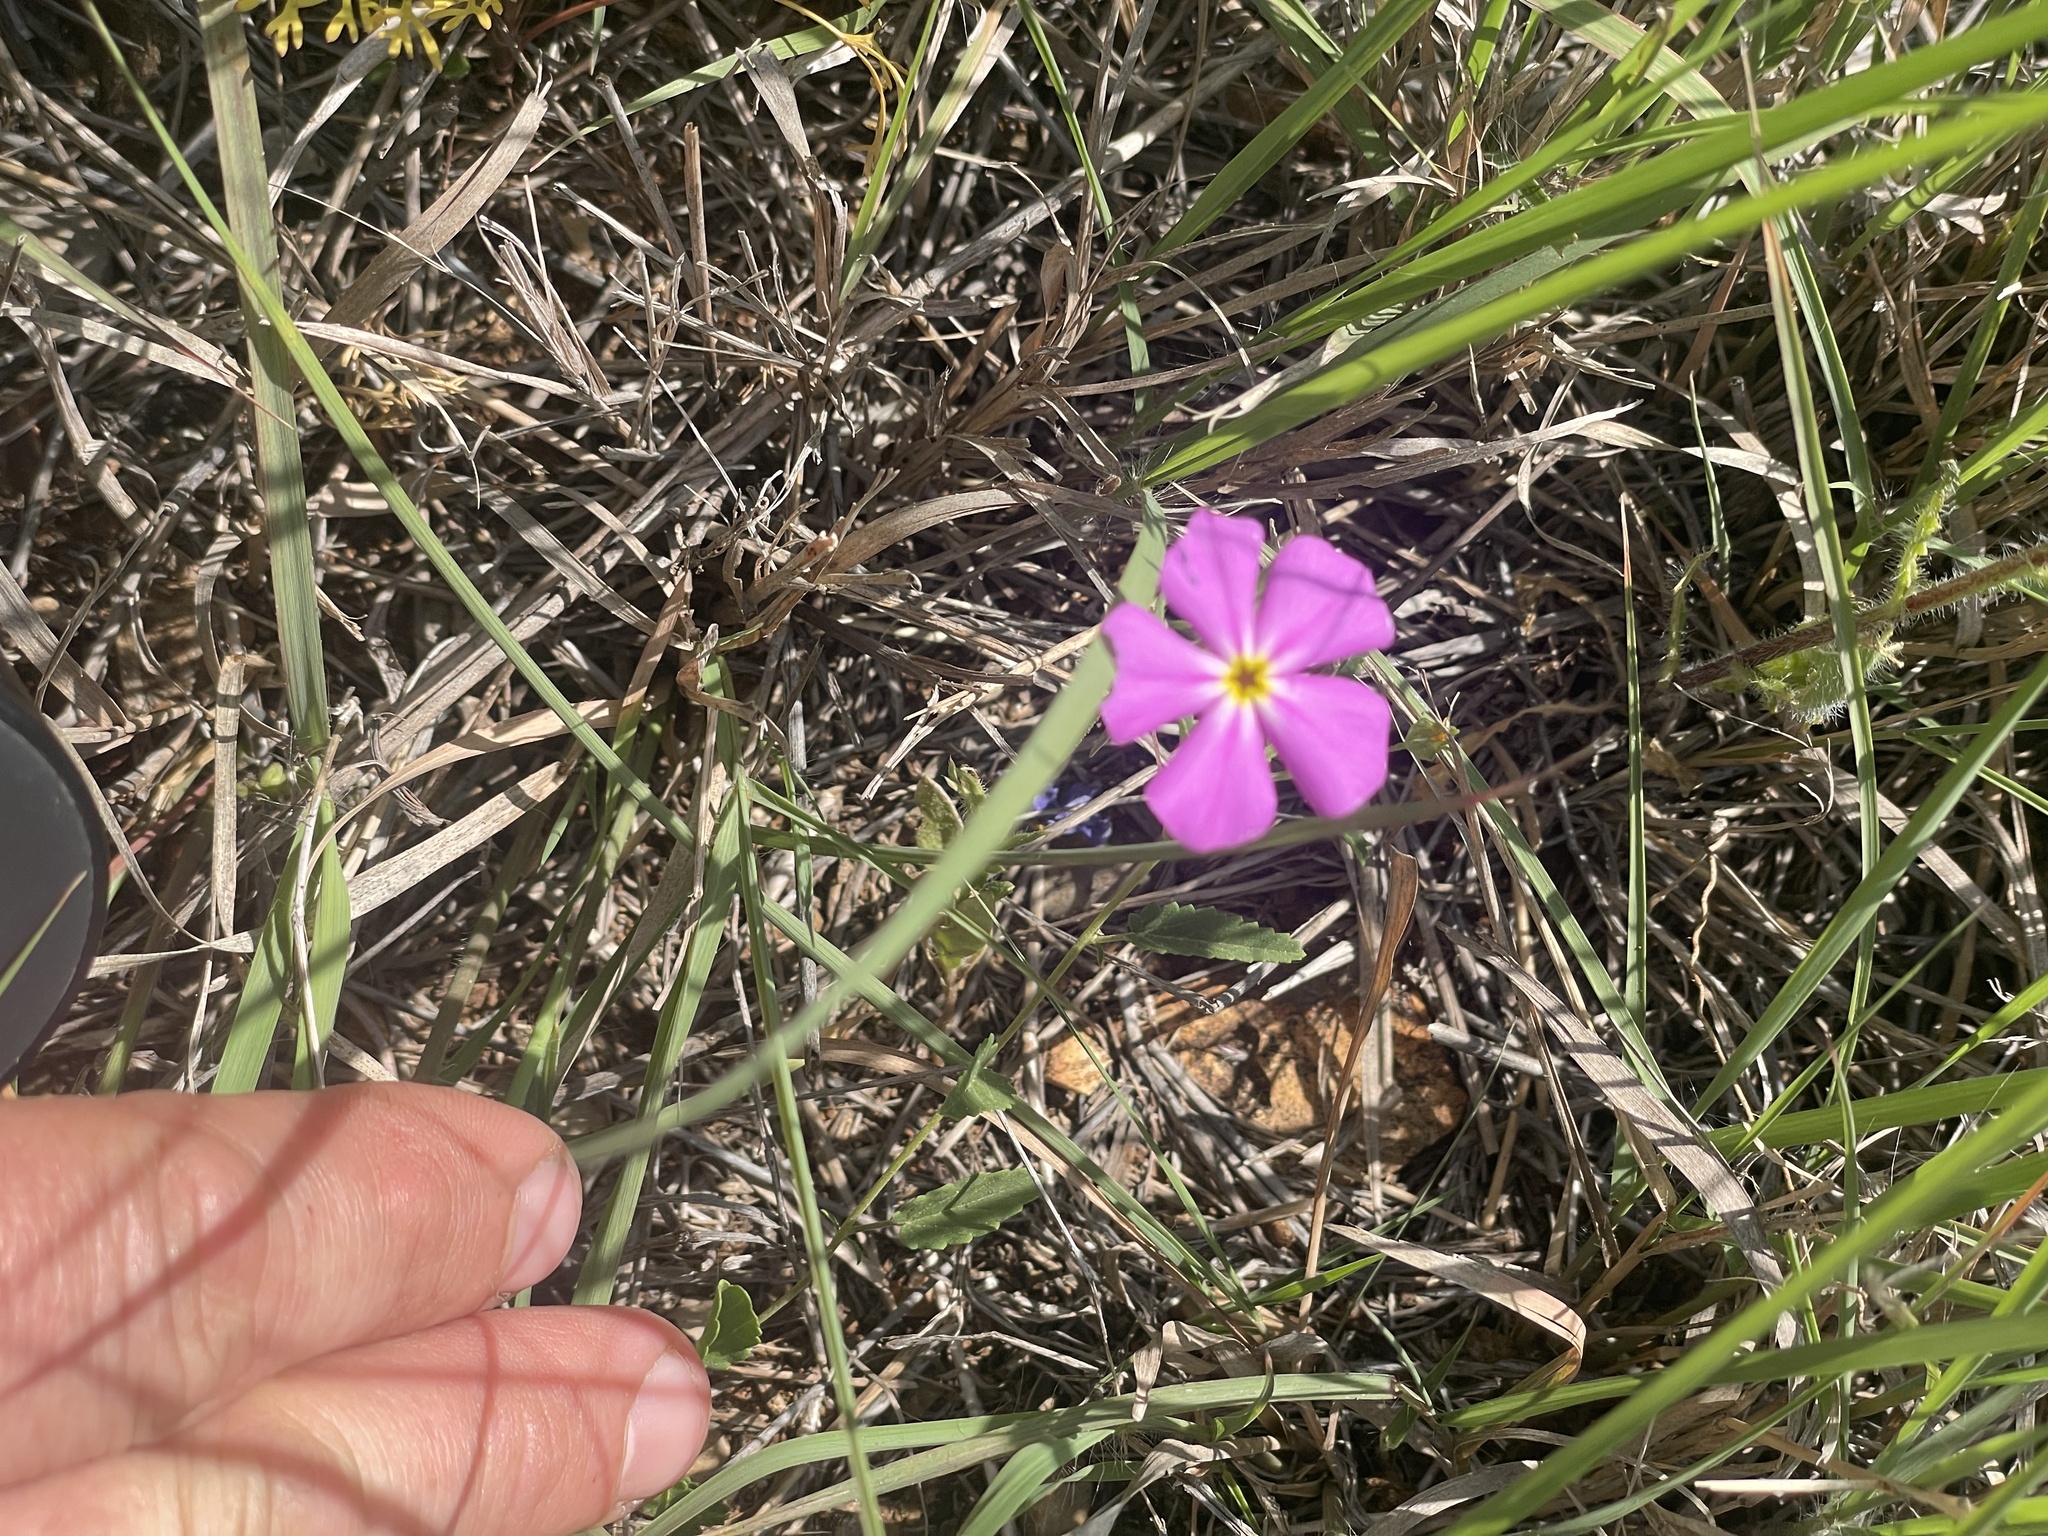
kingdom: Plantae
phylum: Tracheophyta
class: Magnoliopsida
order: Ericales
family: Polemoniaceae
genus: Phlox
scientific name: Phlox roemeriana
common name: Roemer's phlox
